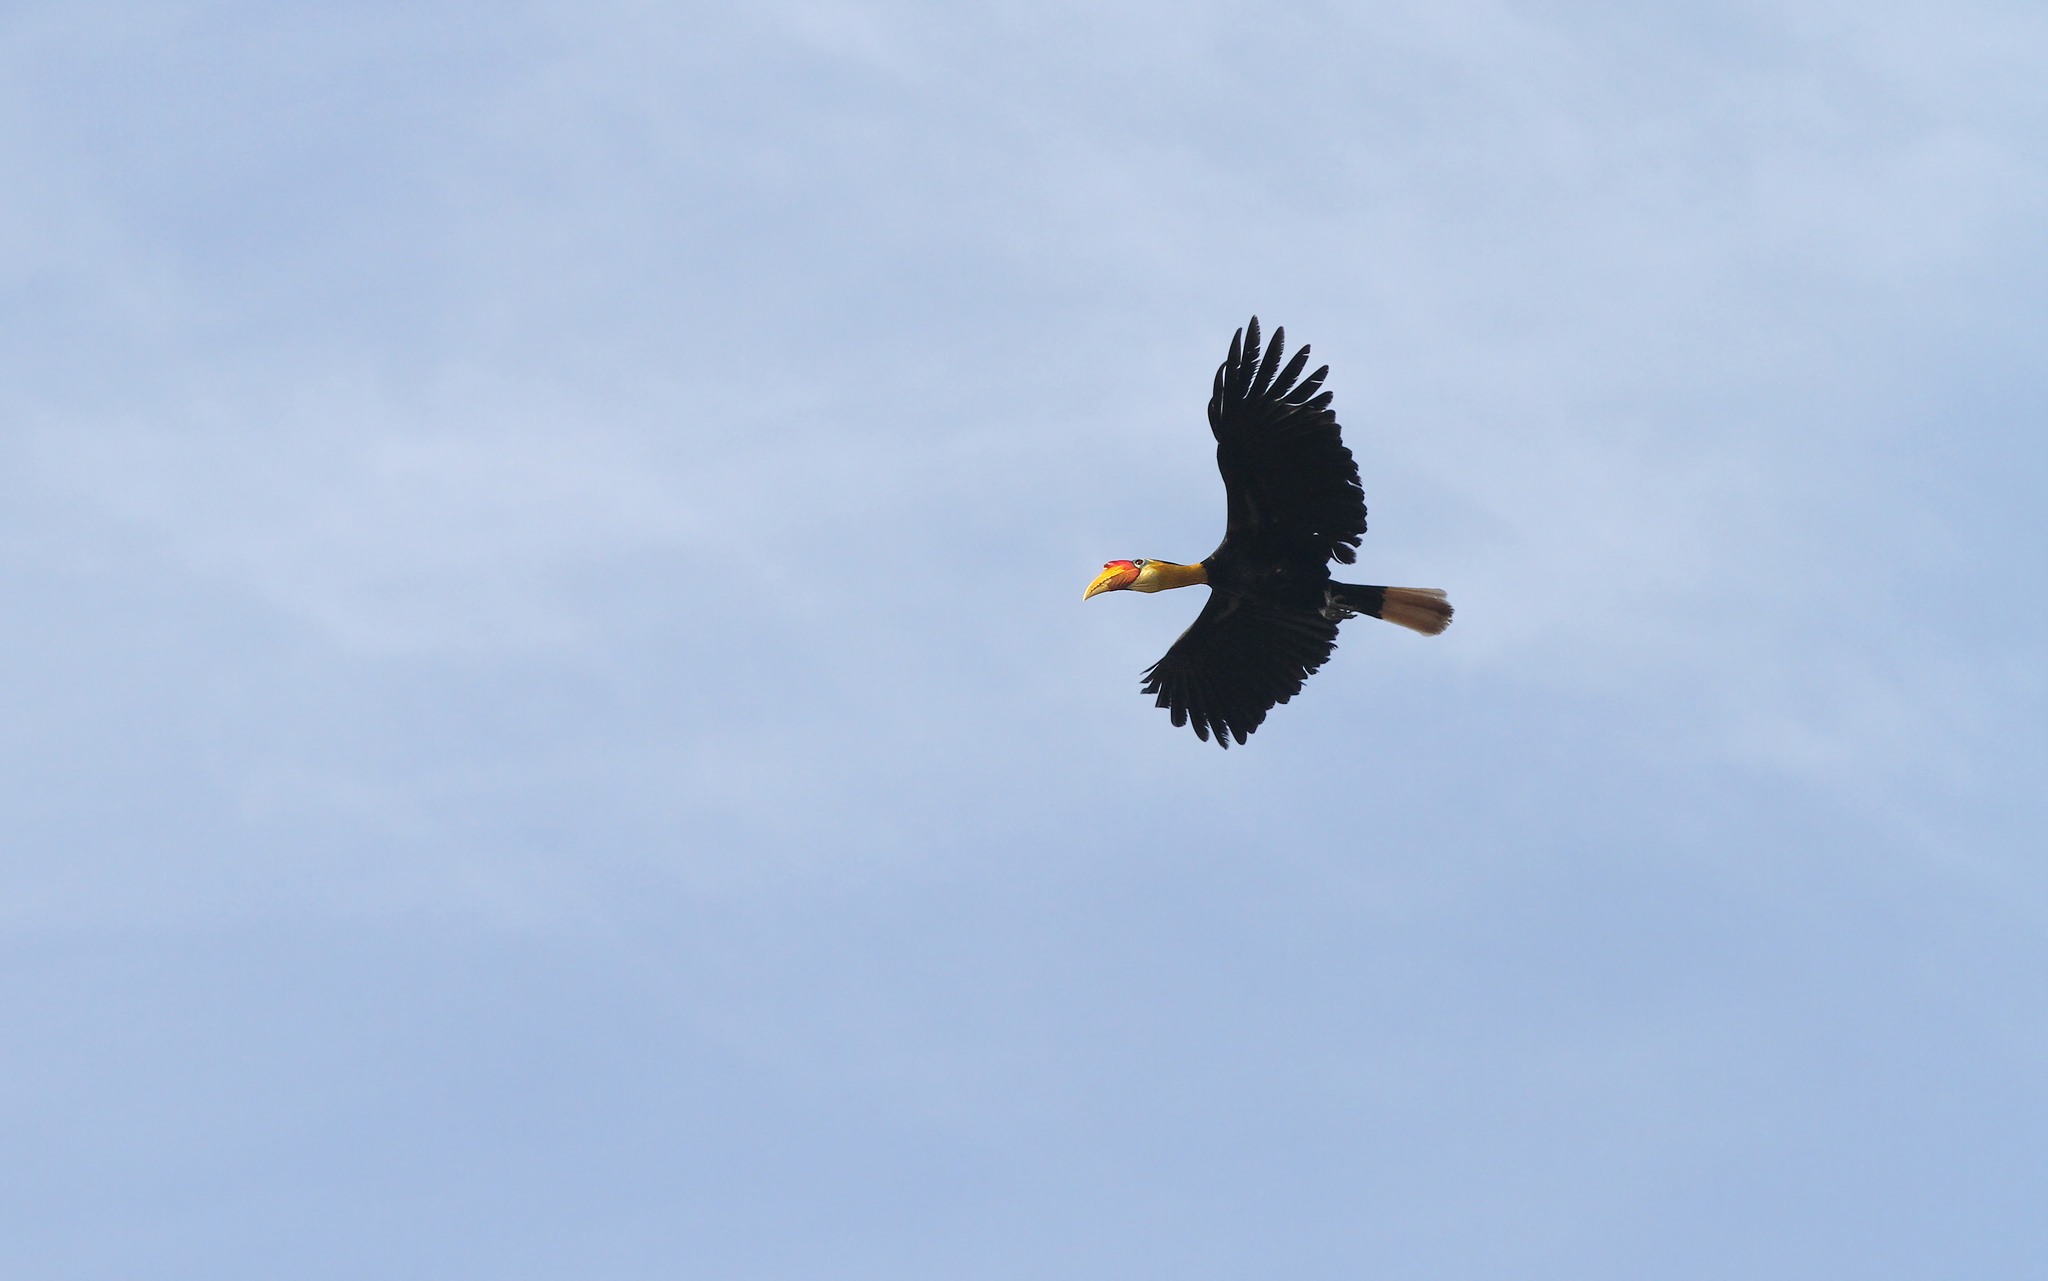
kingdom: Animalia
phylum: Chordata
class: Aves
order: Bucerotiformes
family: Bucerotidae
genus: Rhabdotorrhinus
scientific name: Rhabdotorrhinus corrugatus
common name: Wrinkled hornbill
